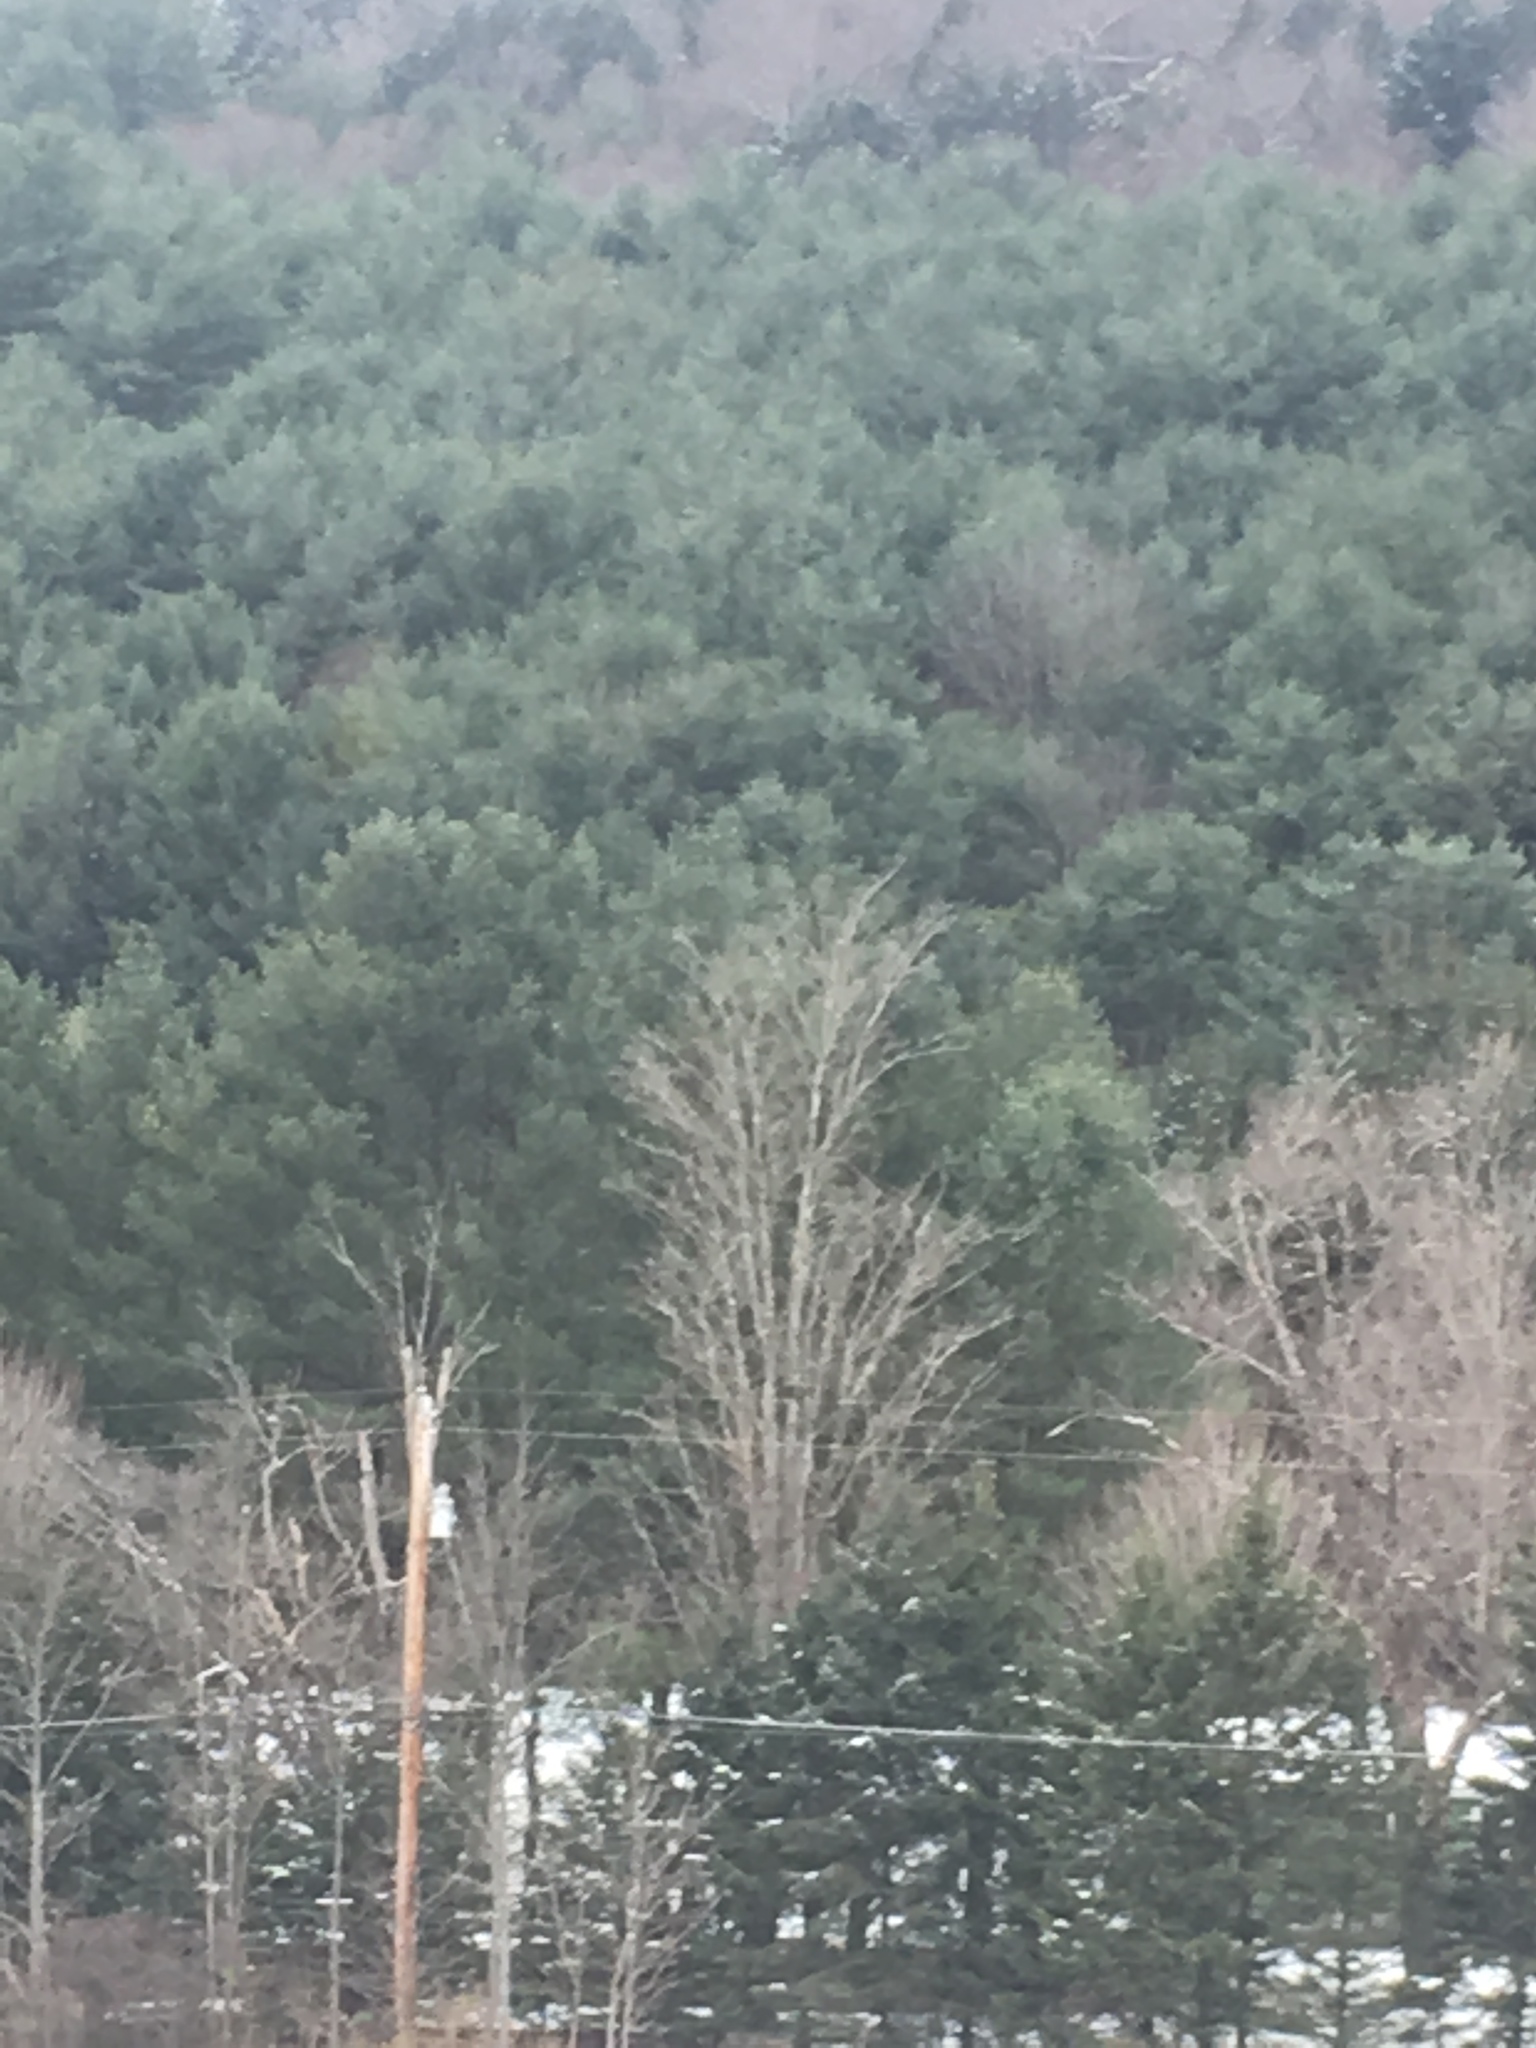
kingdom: Plantae
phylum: Tracheophyta
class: Pinopsida
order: Pinales
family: Pinaceae
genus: Pinus
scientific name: Pinus strobus
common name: Weymouth pine
